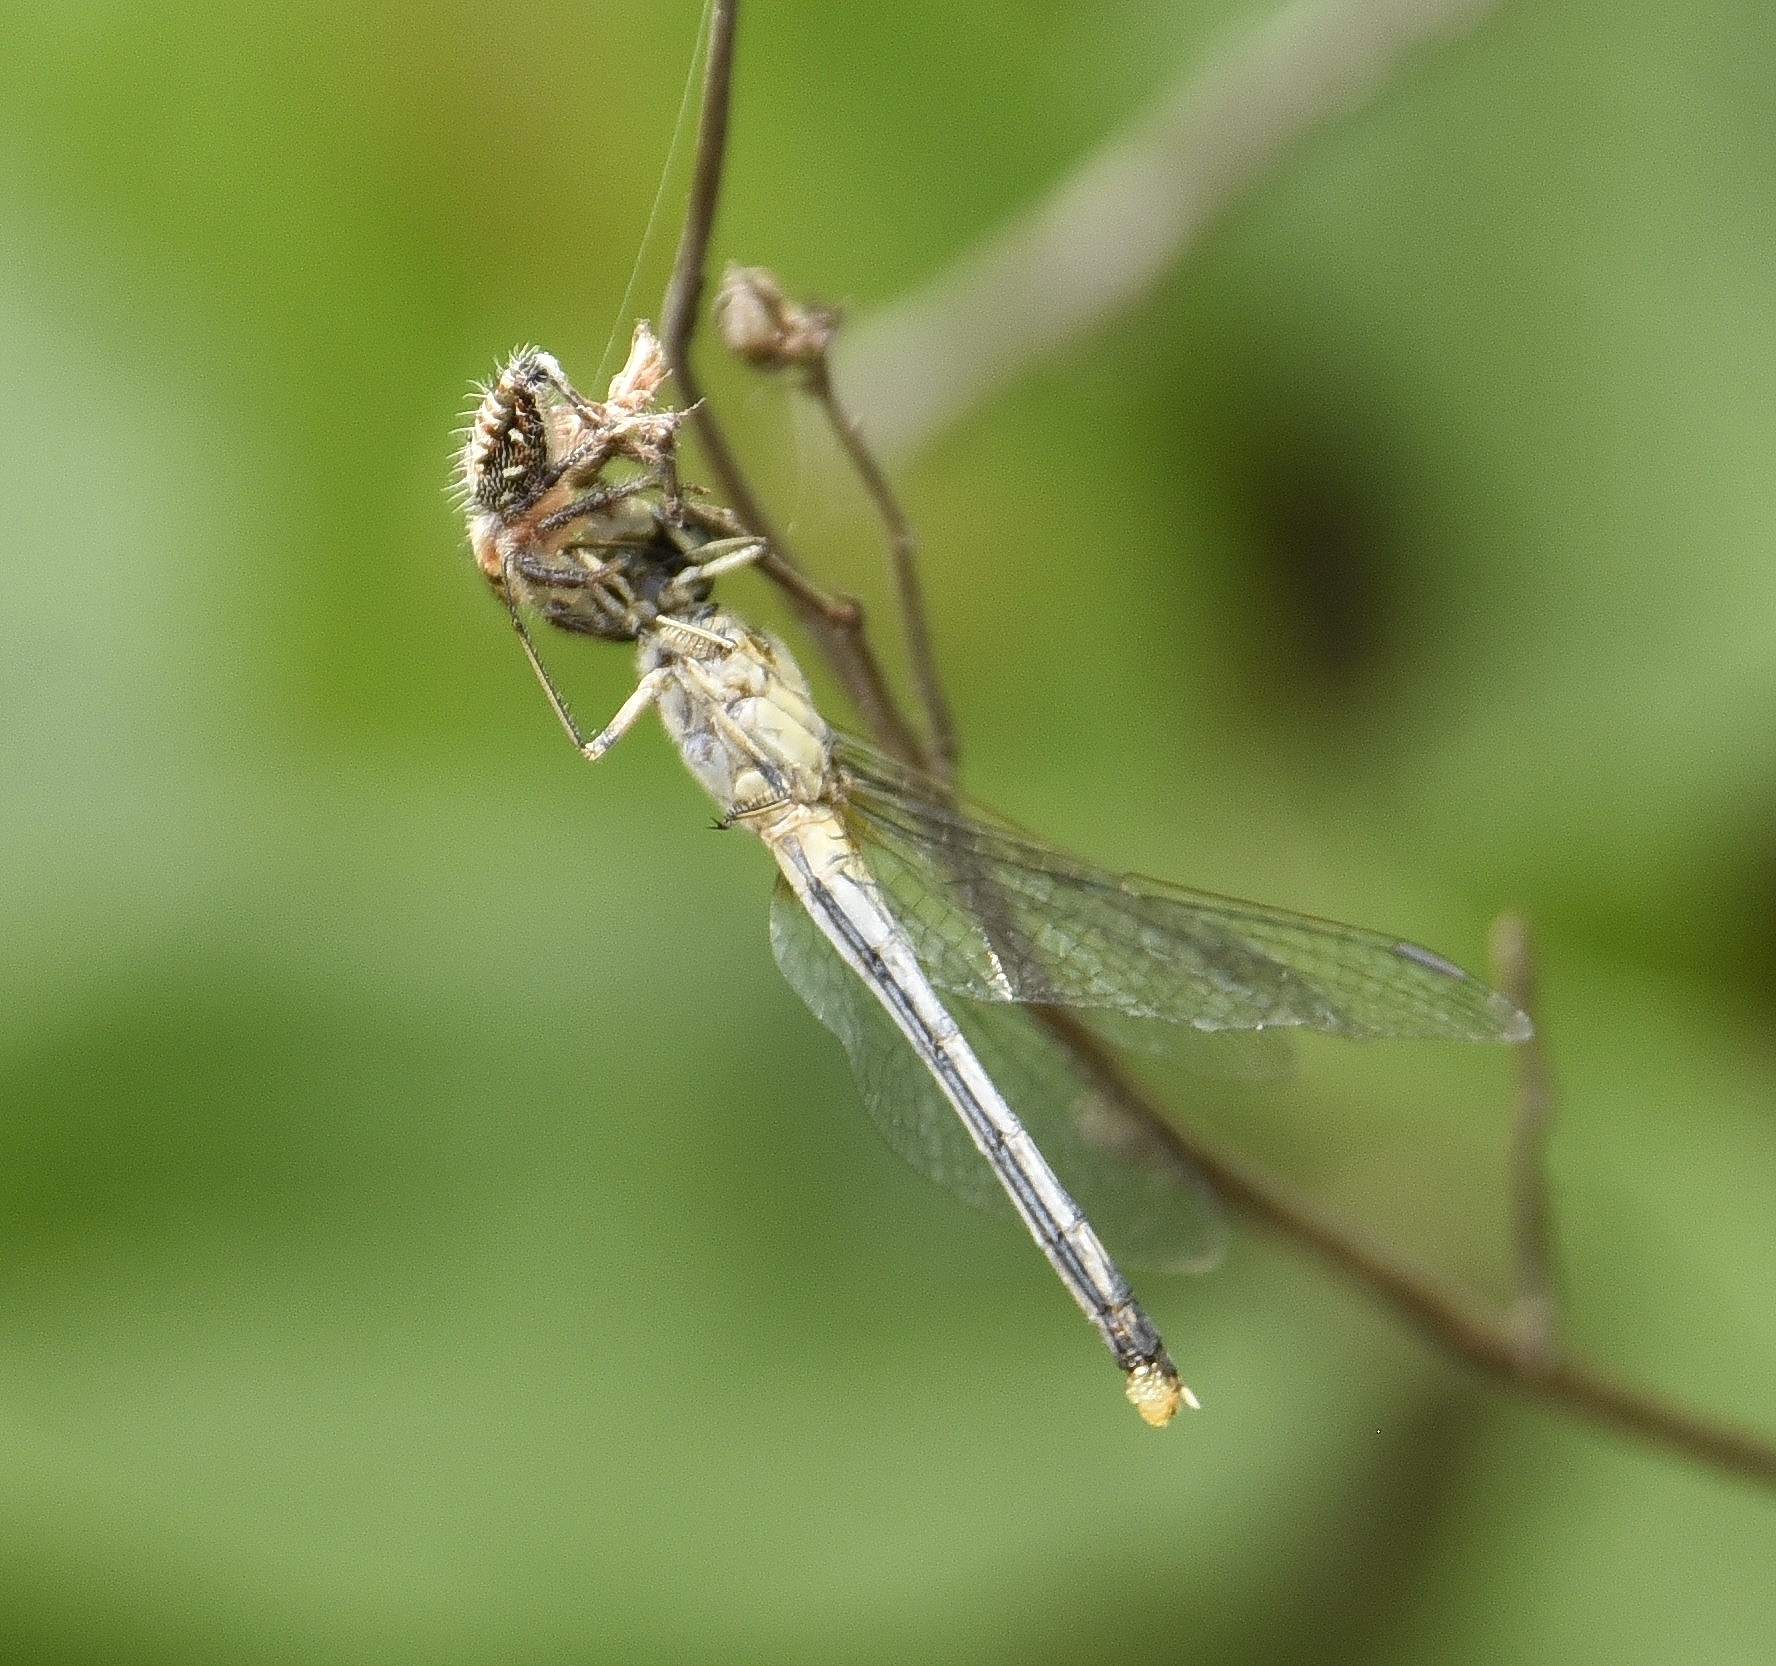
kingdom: Animalia
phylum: Arthropoda
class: Insecta
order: Odonata
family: Libellulidae
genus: Diplacodes
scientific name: Diplacodes trivialis
